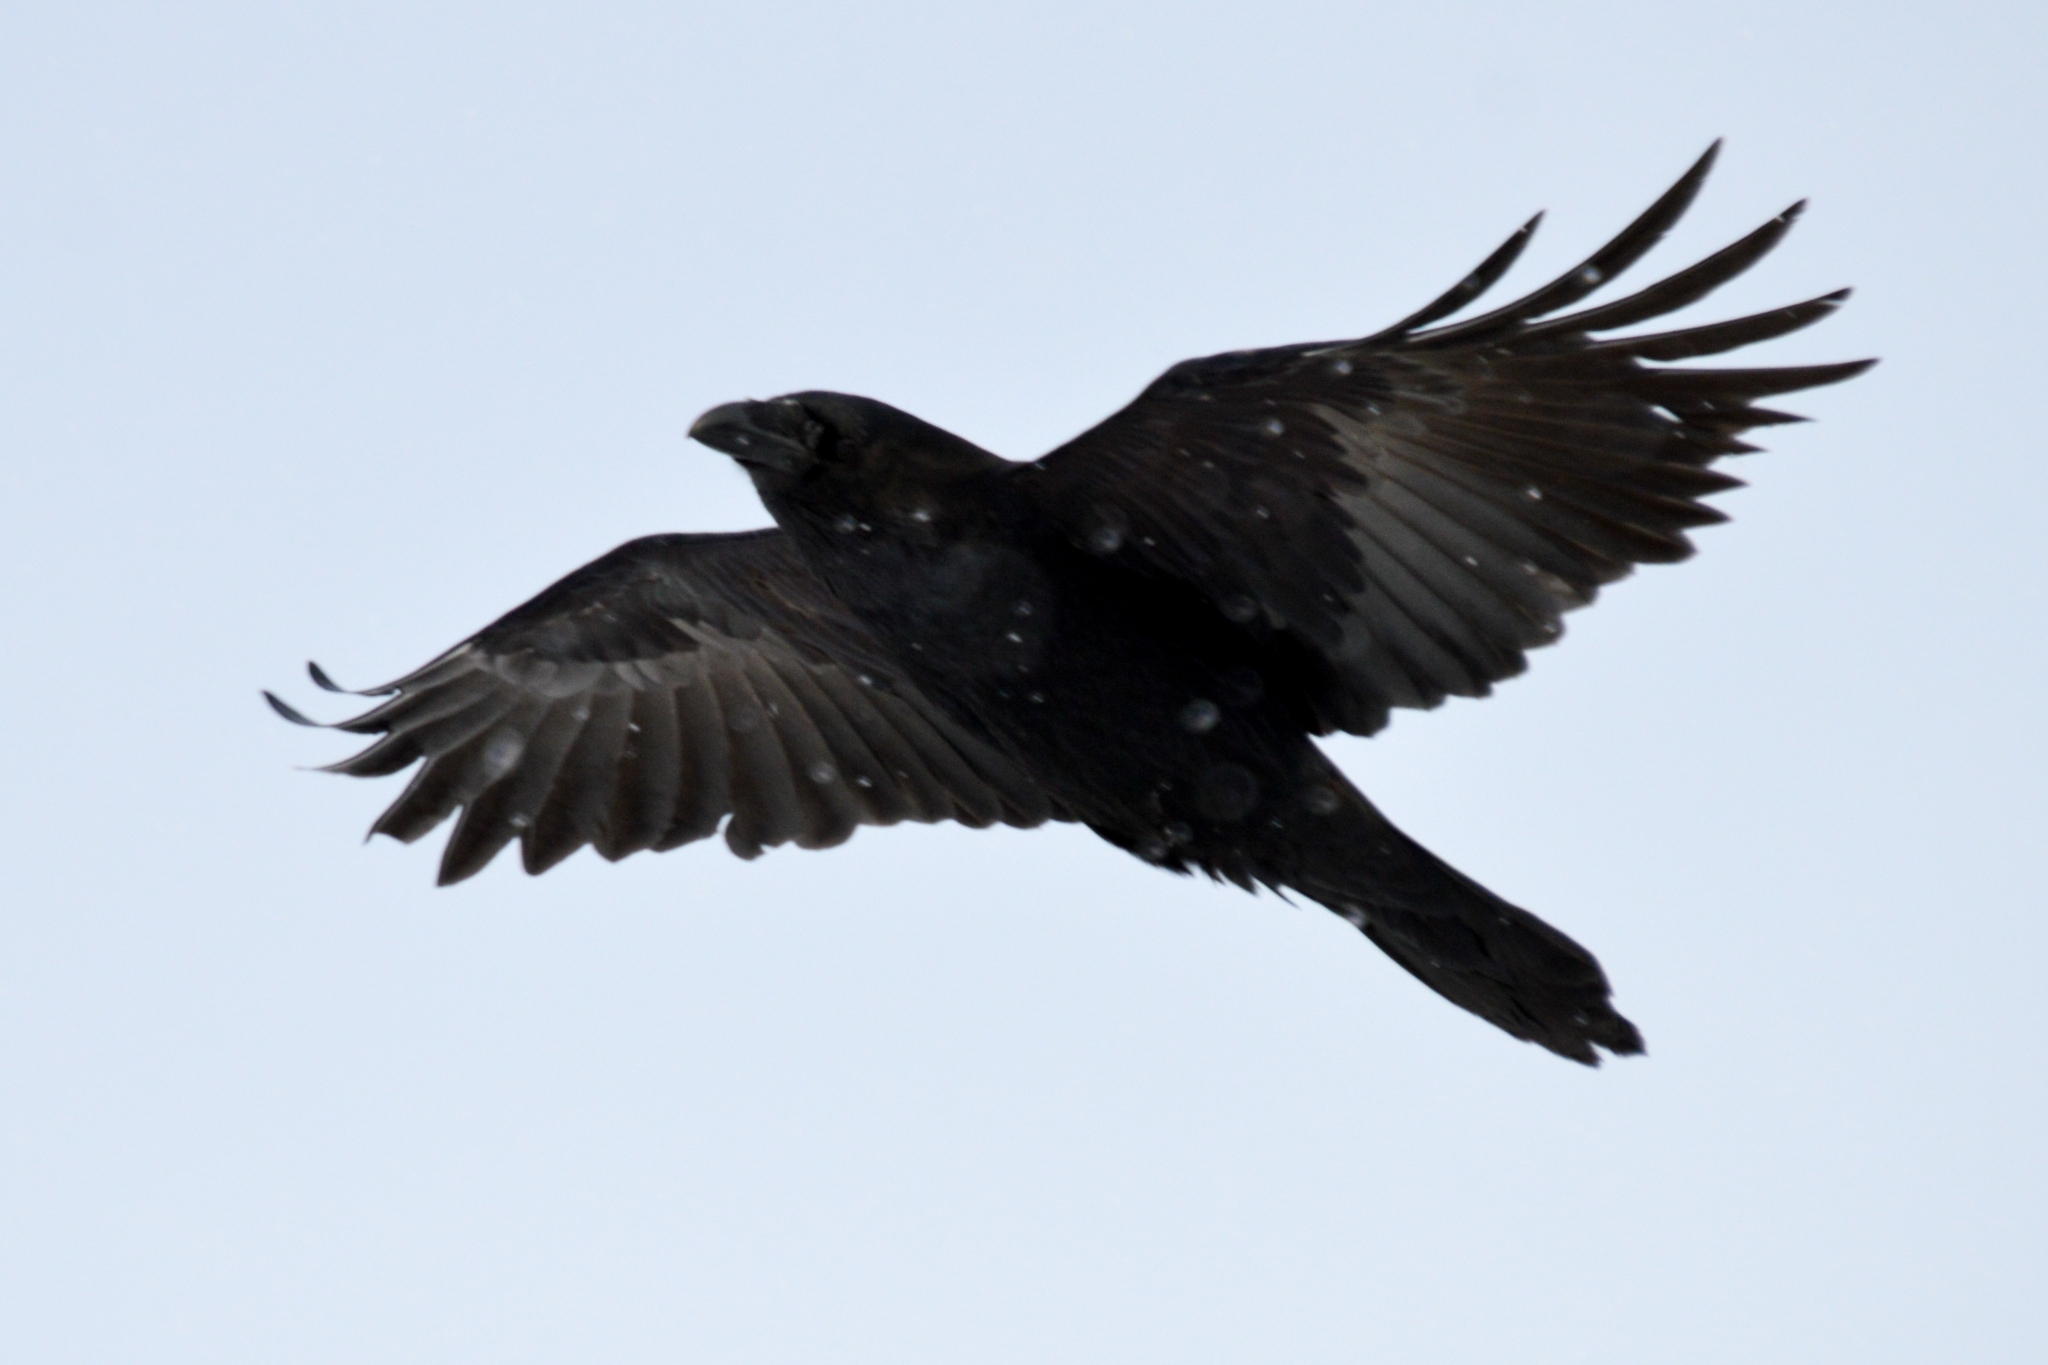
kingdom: Animalia
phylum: Chordata
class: Aves
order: Passeriformes
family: Corvidae
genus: Corvus
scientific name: Corvus corax
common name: Common raven
